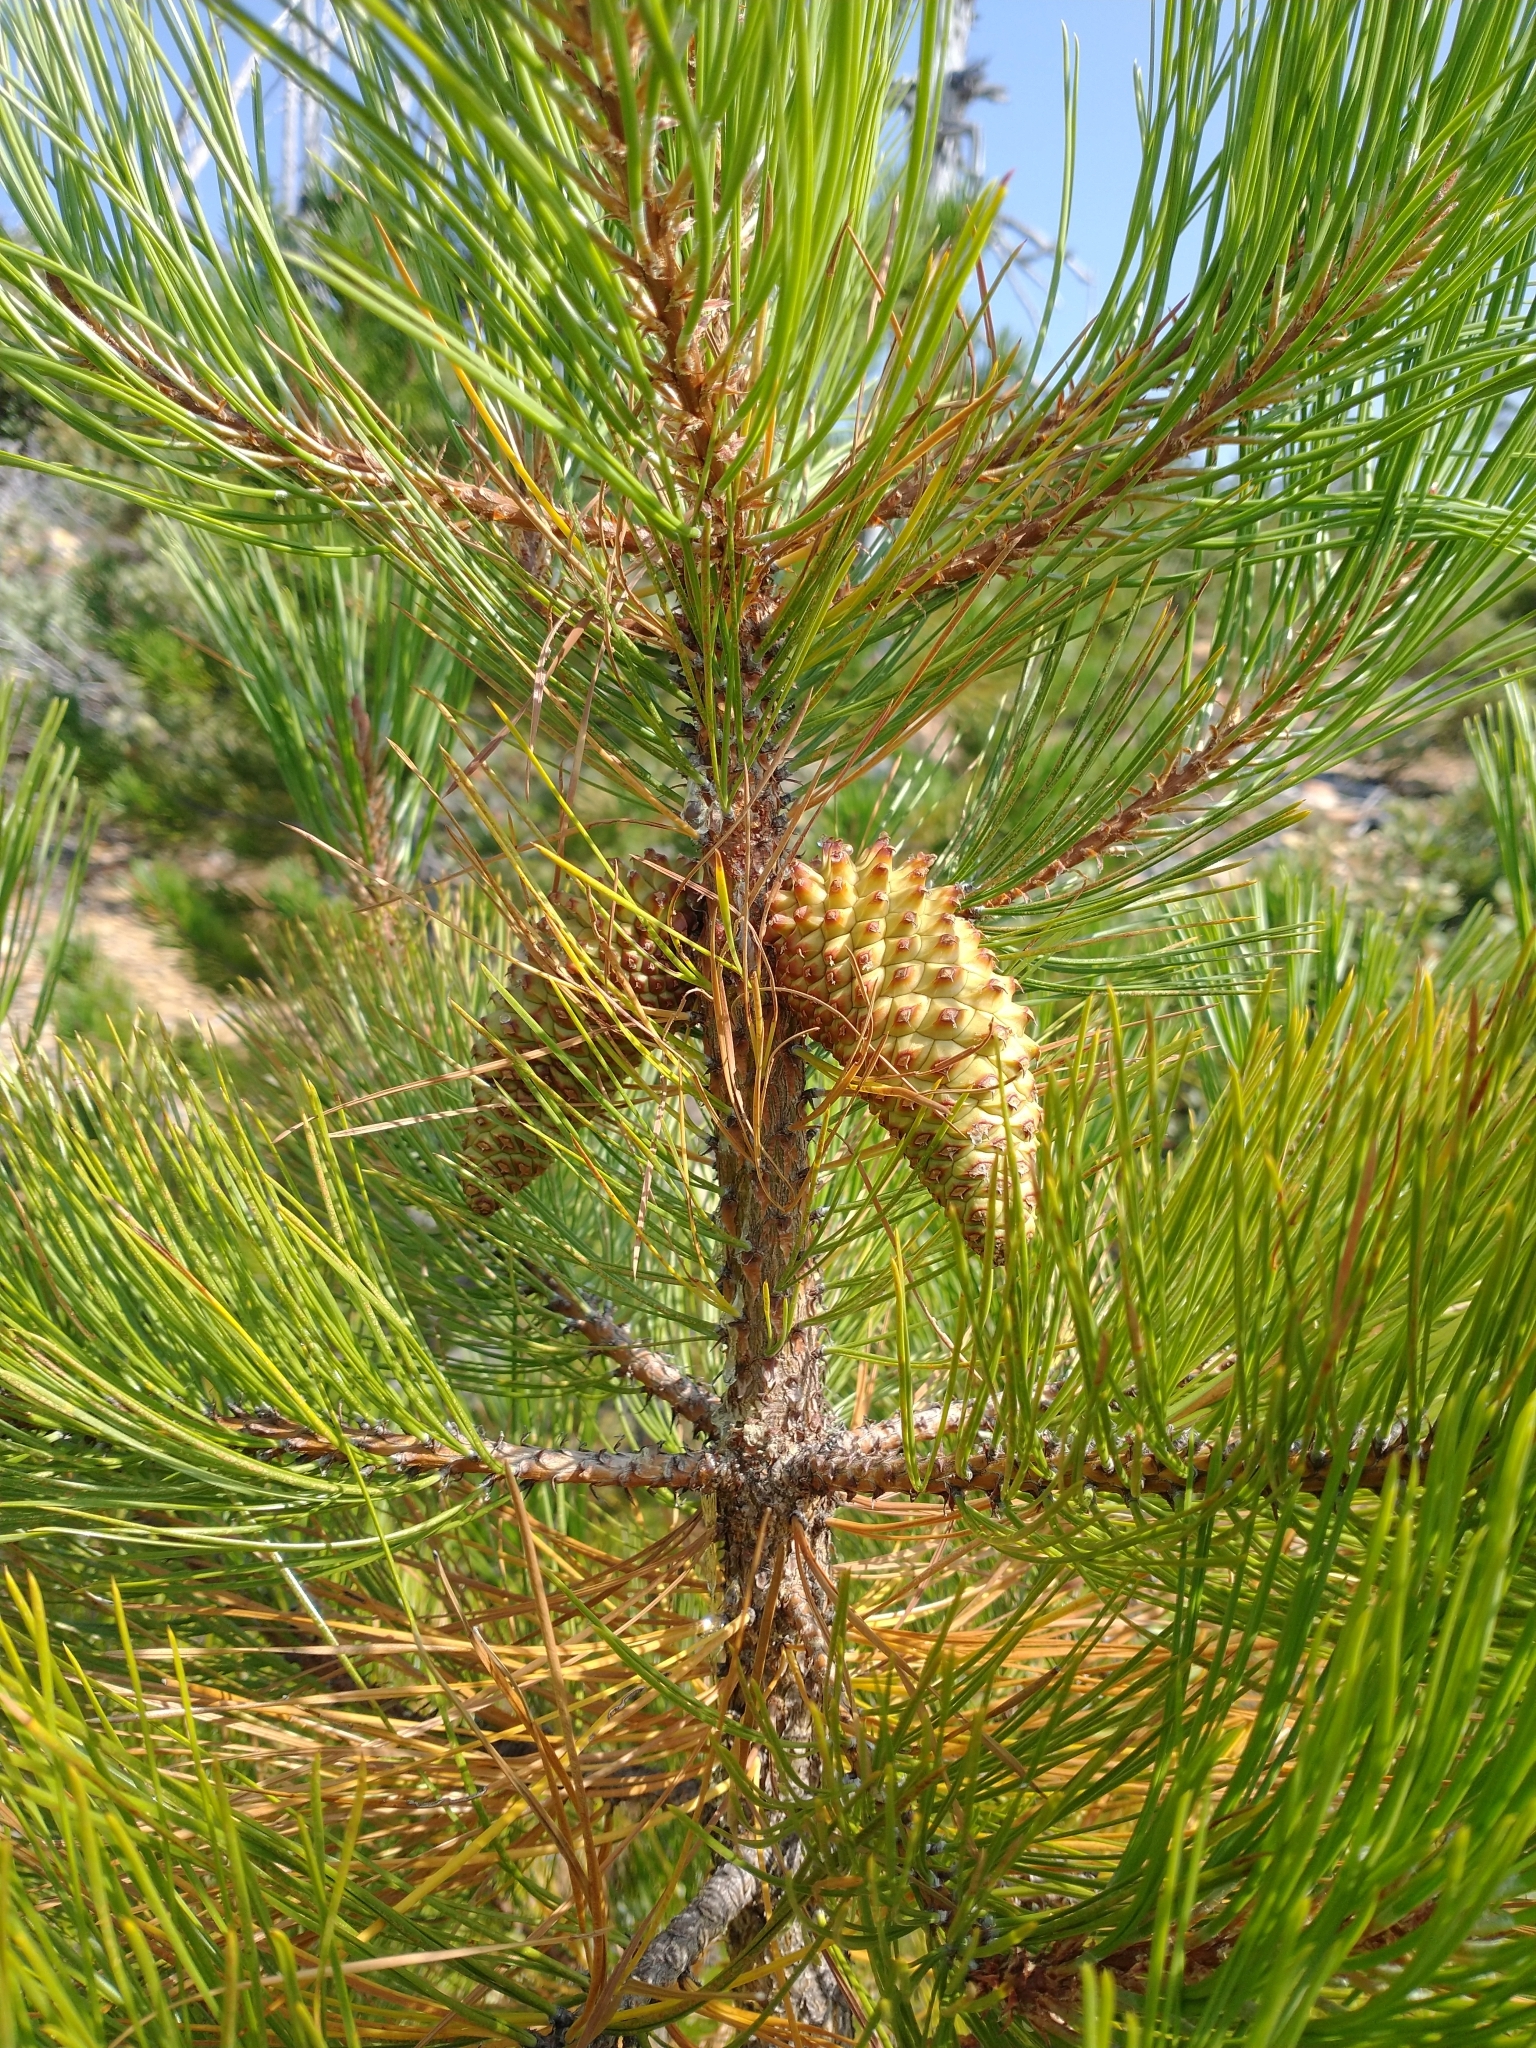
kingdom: Plantae
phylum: Tracheophyta
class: Pinopsida
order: Pinales
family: Pinaceae
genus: Pinus
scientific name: Pinus attenuata
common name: Knobcone pine
